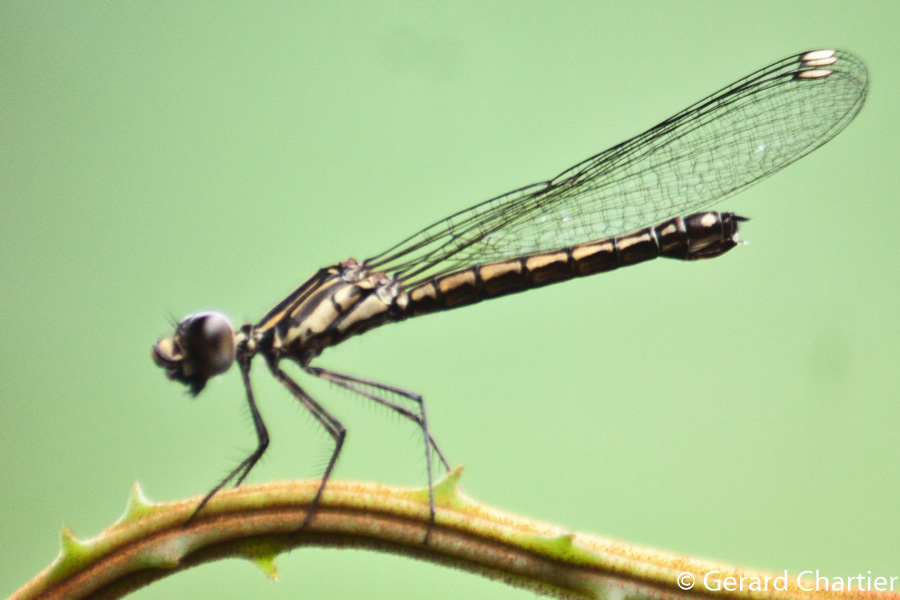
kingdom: Animalia
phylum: Arthropoda
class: Insecta
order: Odonata
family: Chlorocyphidae
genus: Libellago
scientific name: Libellago lineata
